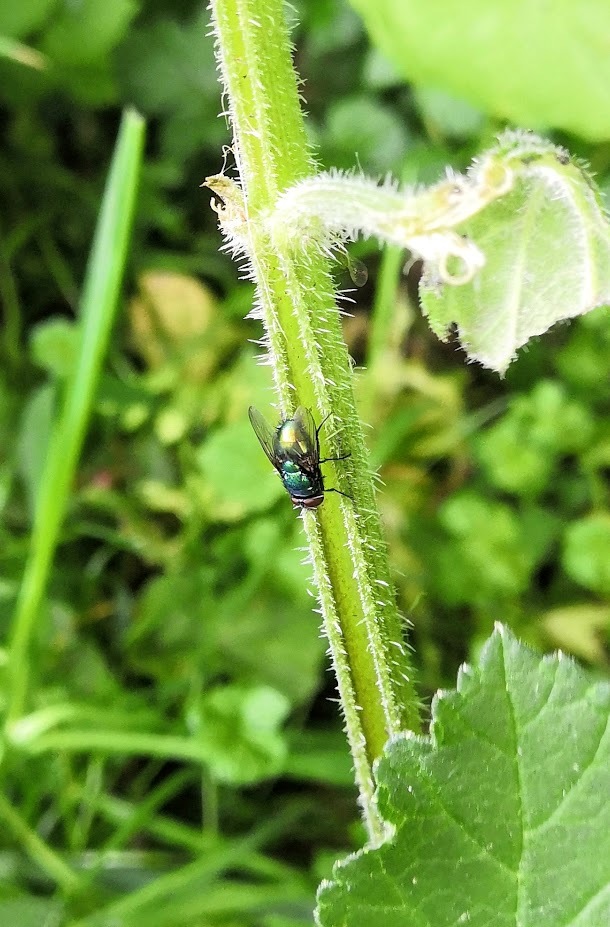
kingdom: Animalia
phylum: Arthropoda
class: Insecta
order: Diptera
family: Calliphoridae
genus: Lucilia
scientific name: Lucilia
